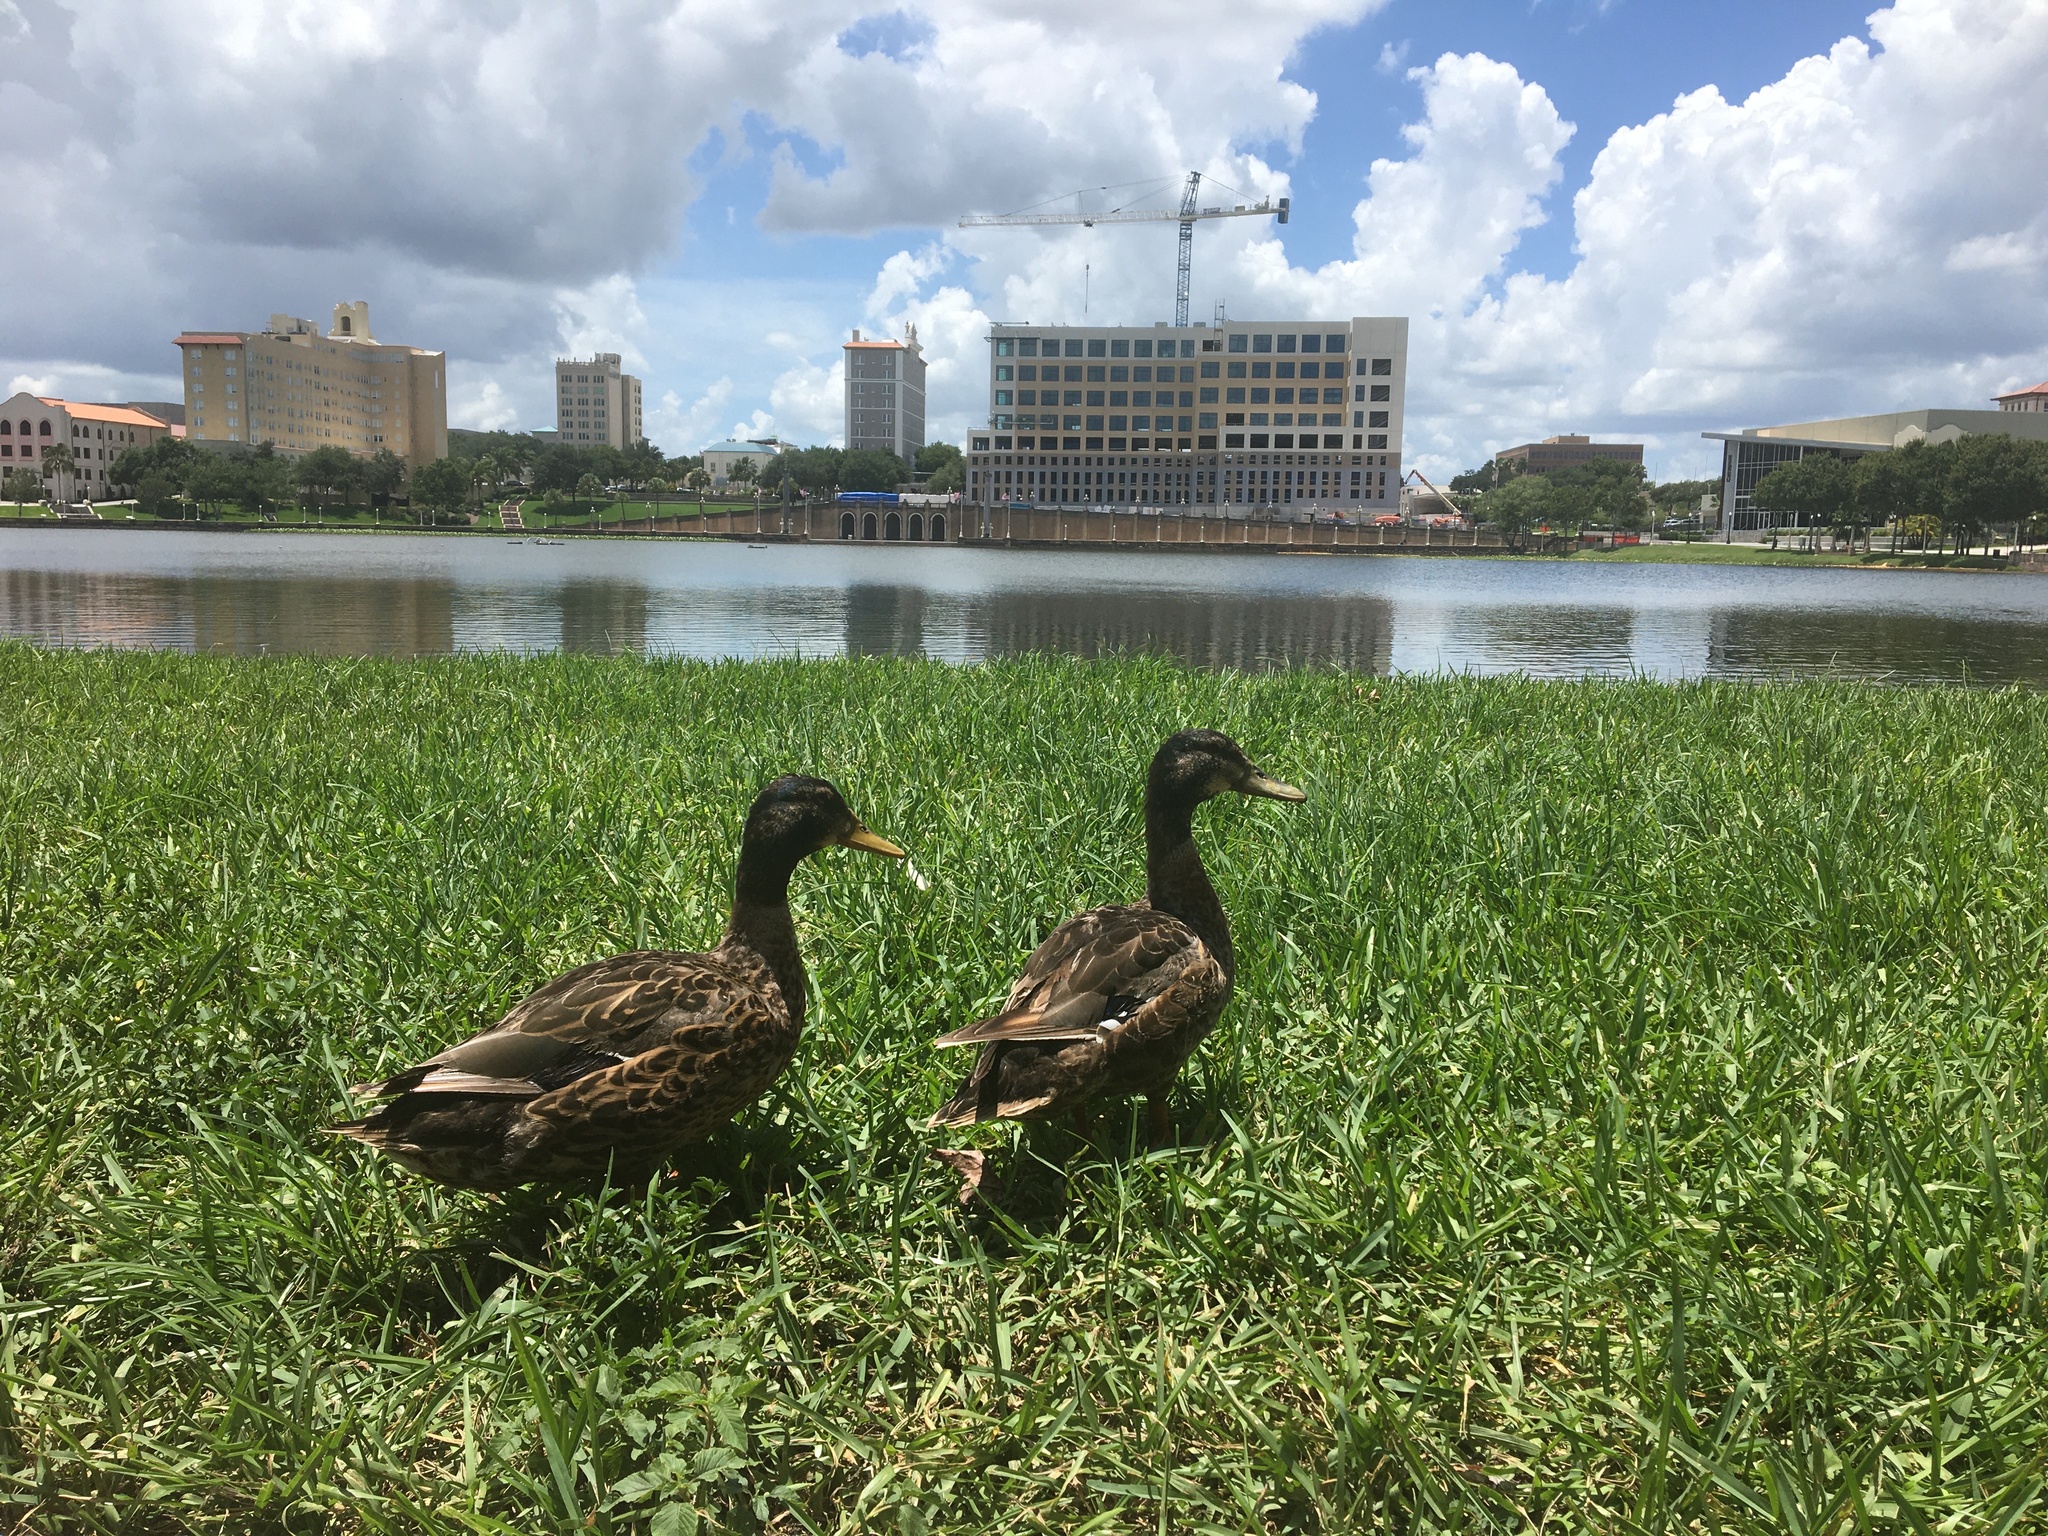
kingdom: Animalia
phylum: Chordata
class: Aves
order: Anseriformes
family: Anatidae
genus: Anas
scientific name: Anas platyrhynchos
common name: Mallard
